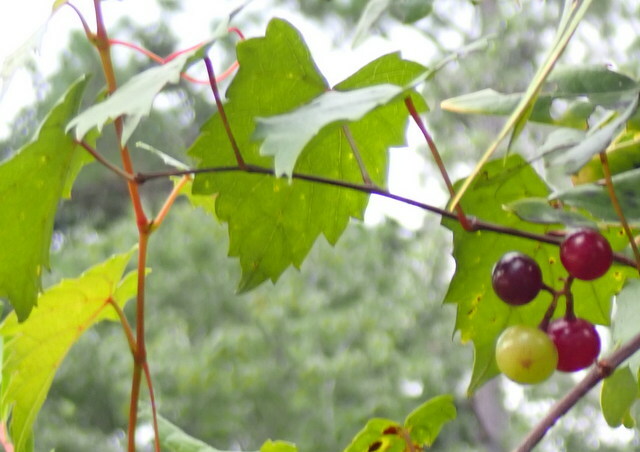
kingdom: Plantae
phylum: Tracheophyta
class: Magnoliopsida
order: Vitales
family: Vitaceae
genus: Vitis
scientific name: Vitis rotundifolia
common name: Muscadine grape
